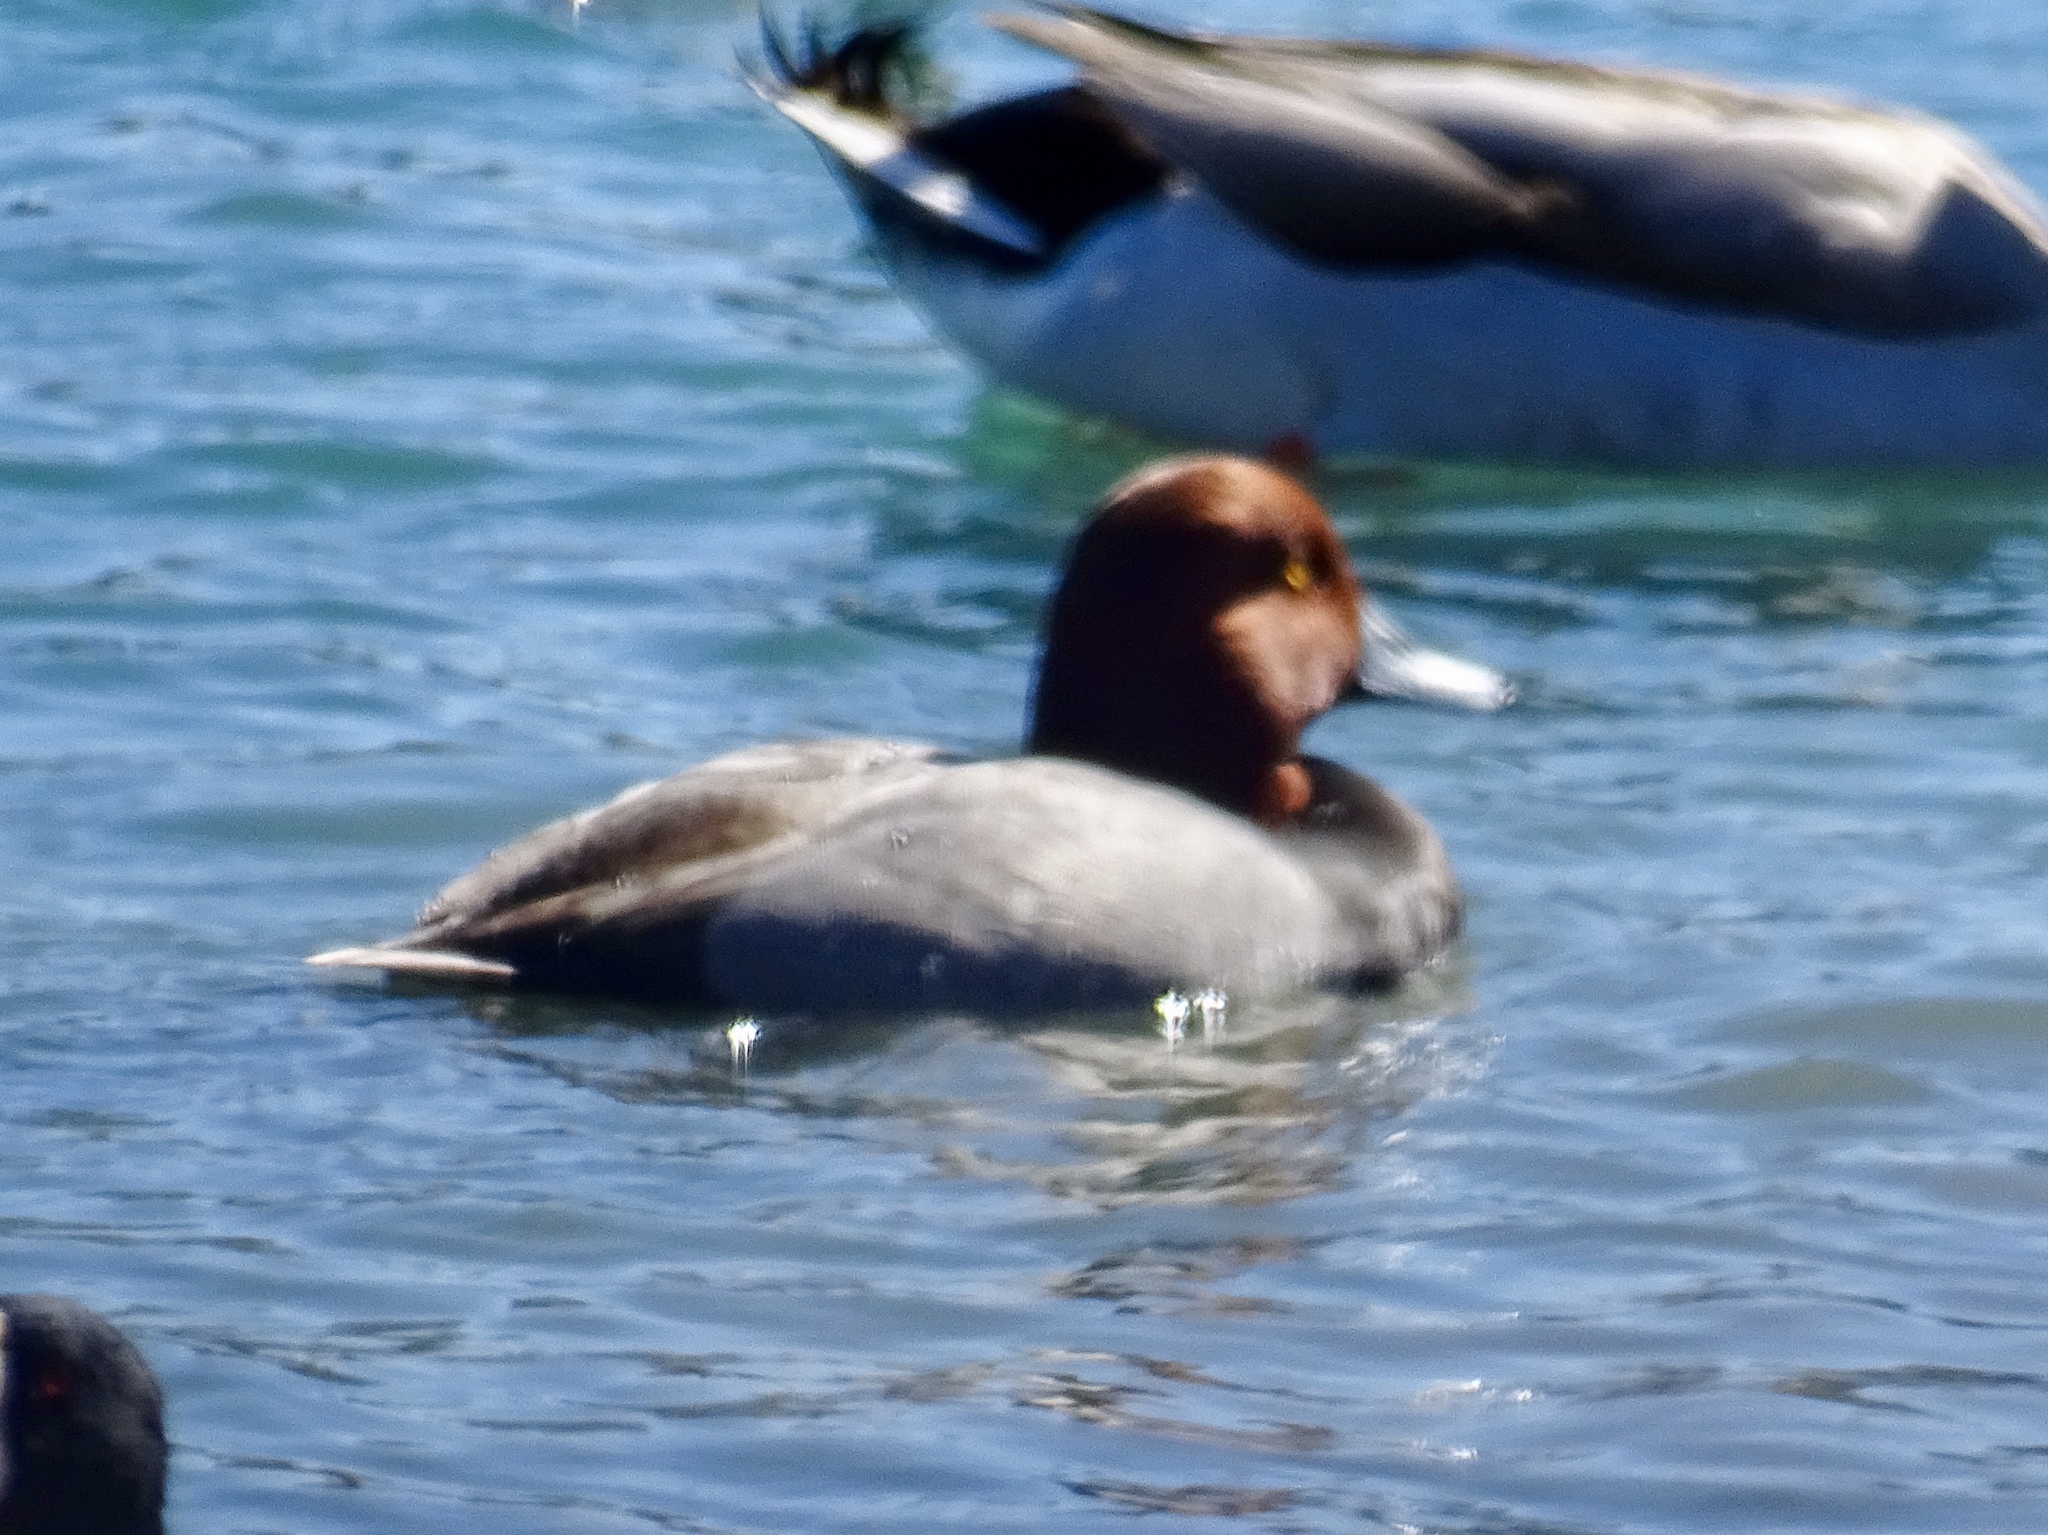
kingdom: Animalia
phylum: Chordata
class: Aves
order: Anseriformes
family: Anatidae
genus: Aythya
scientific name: Aythya americana
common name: Redhead
